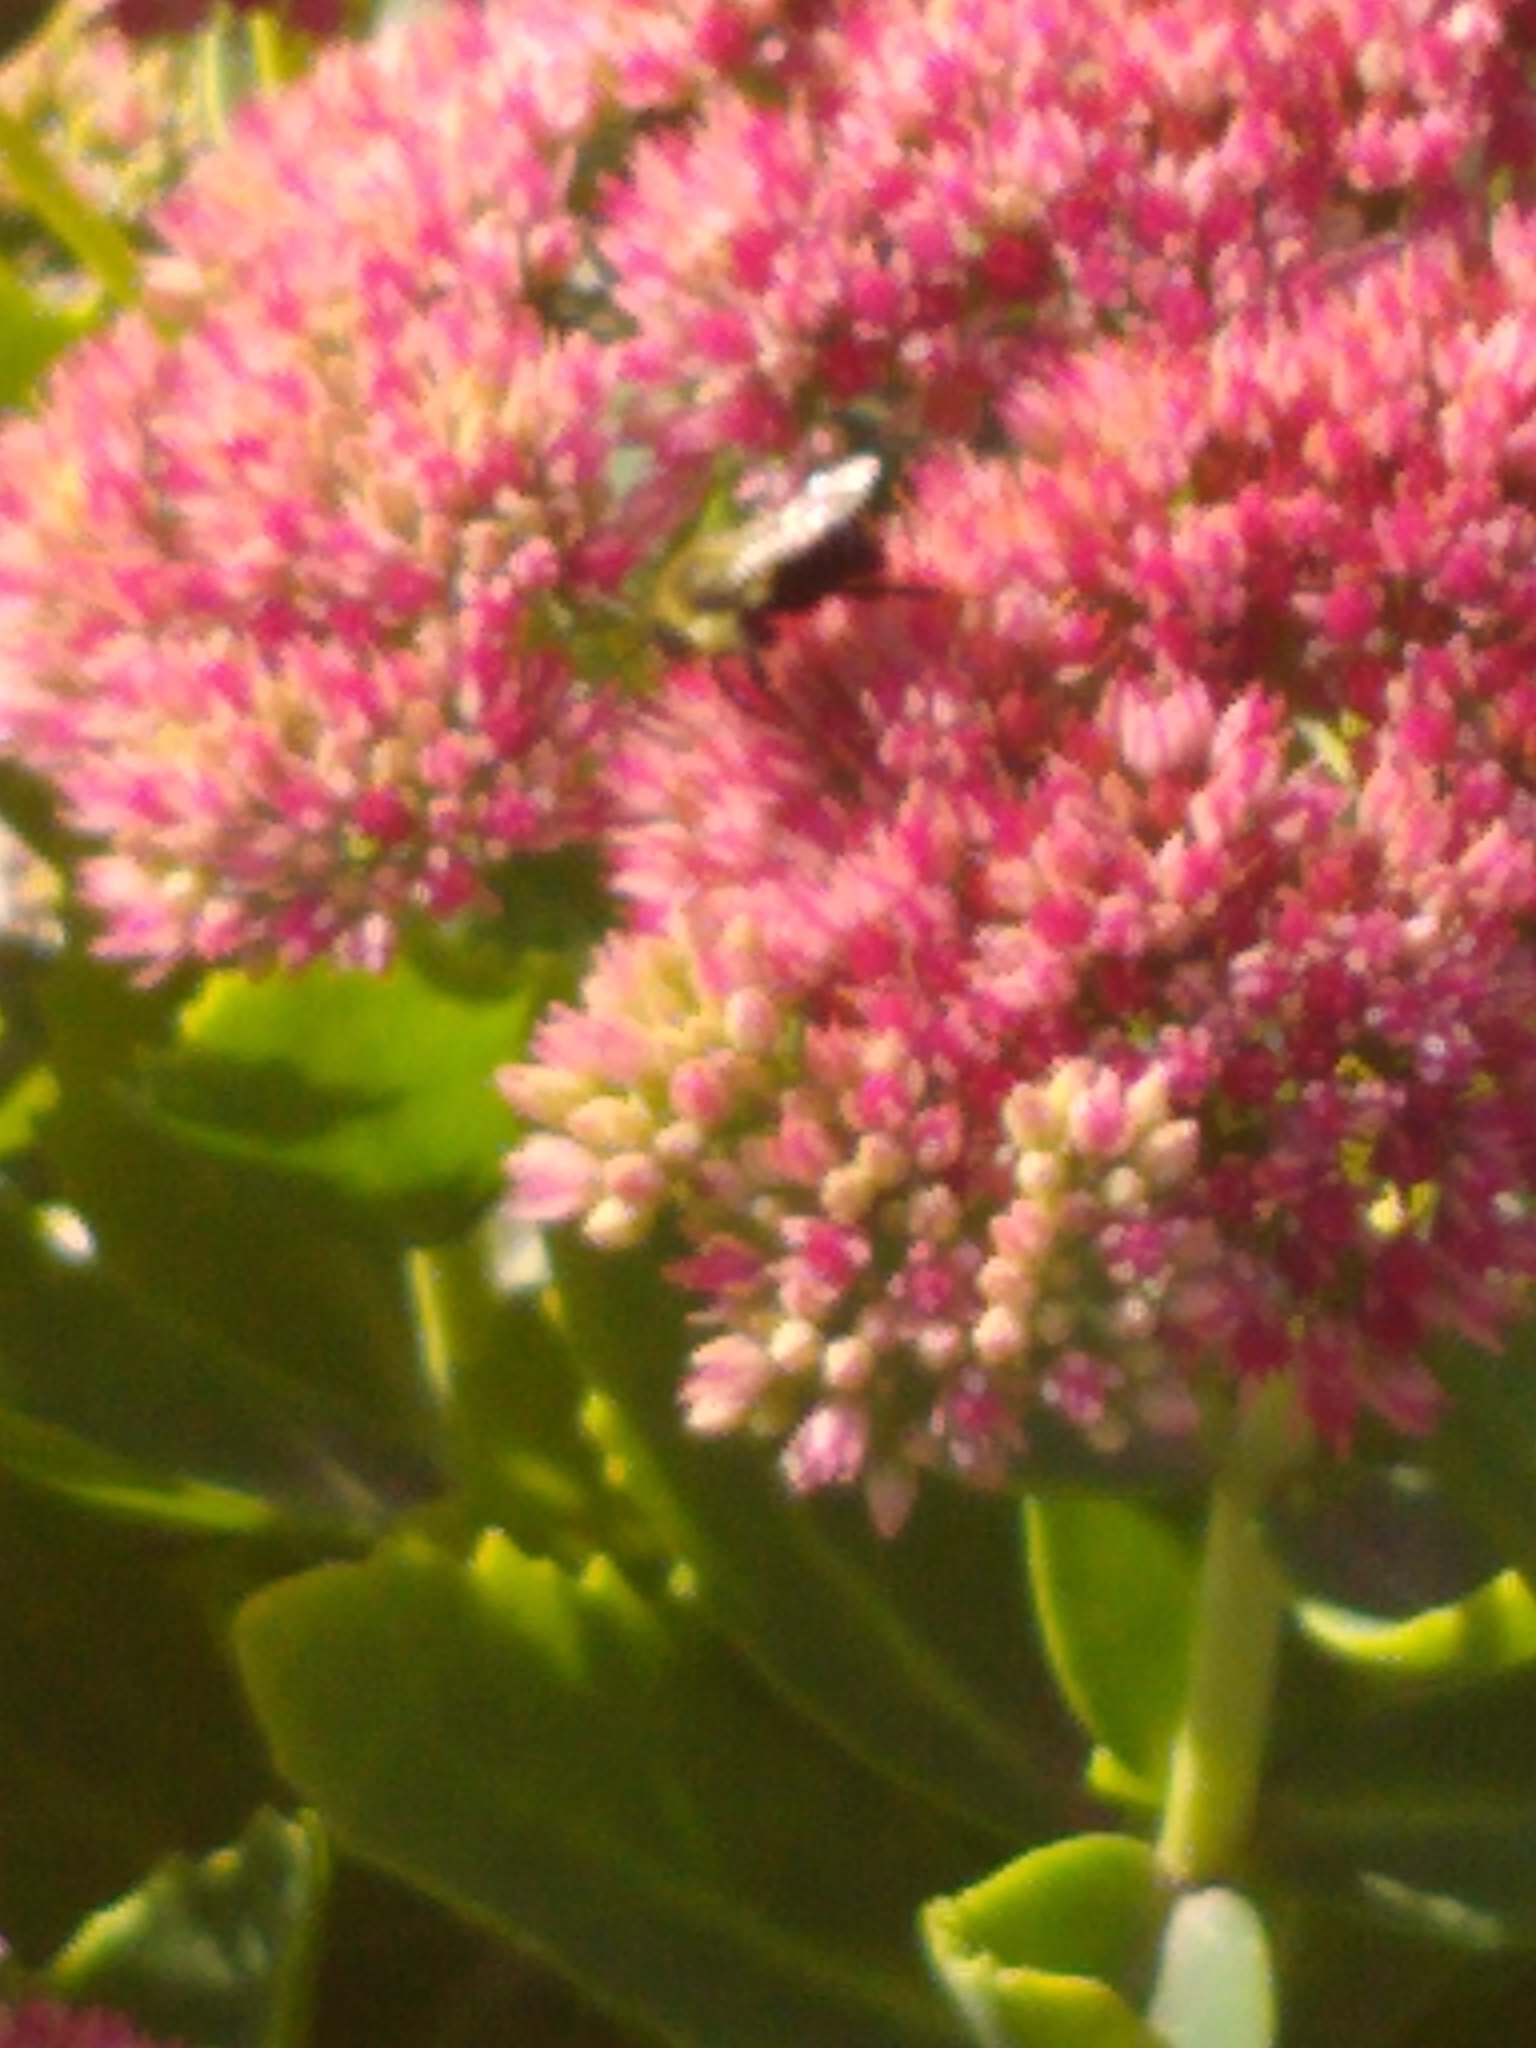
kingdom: Animalia
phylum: Arthropoda
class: Insecta
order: Hymenoptera
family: Apidae
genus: Bombus
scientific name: Bombus impatiens
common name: Common eastern bumble bee
